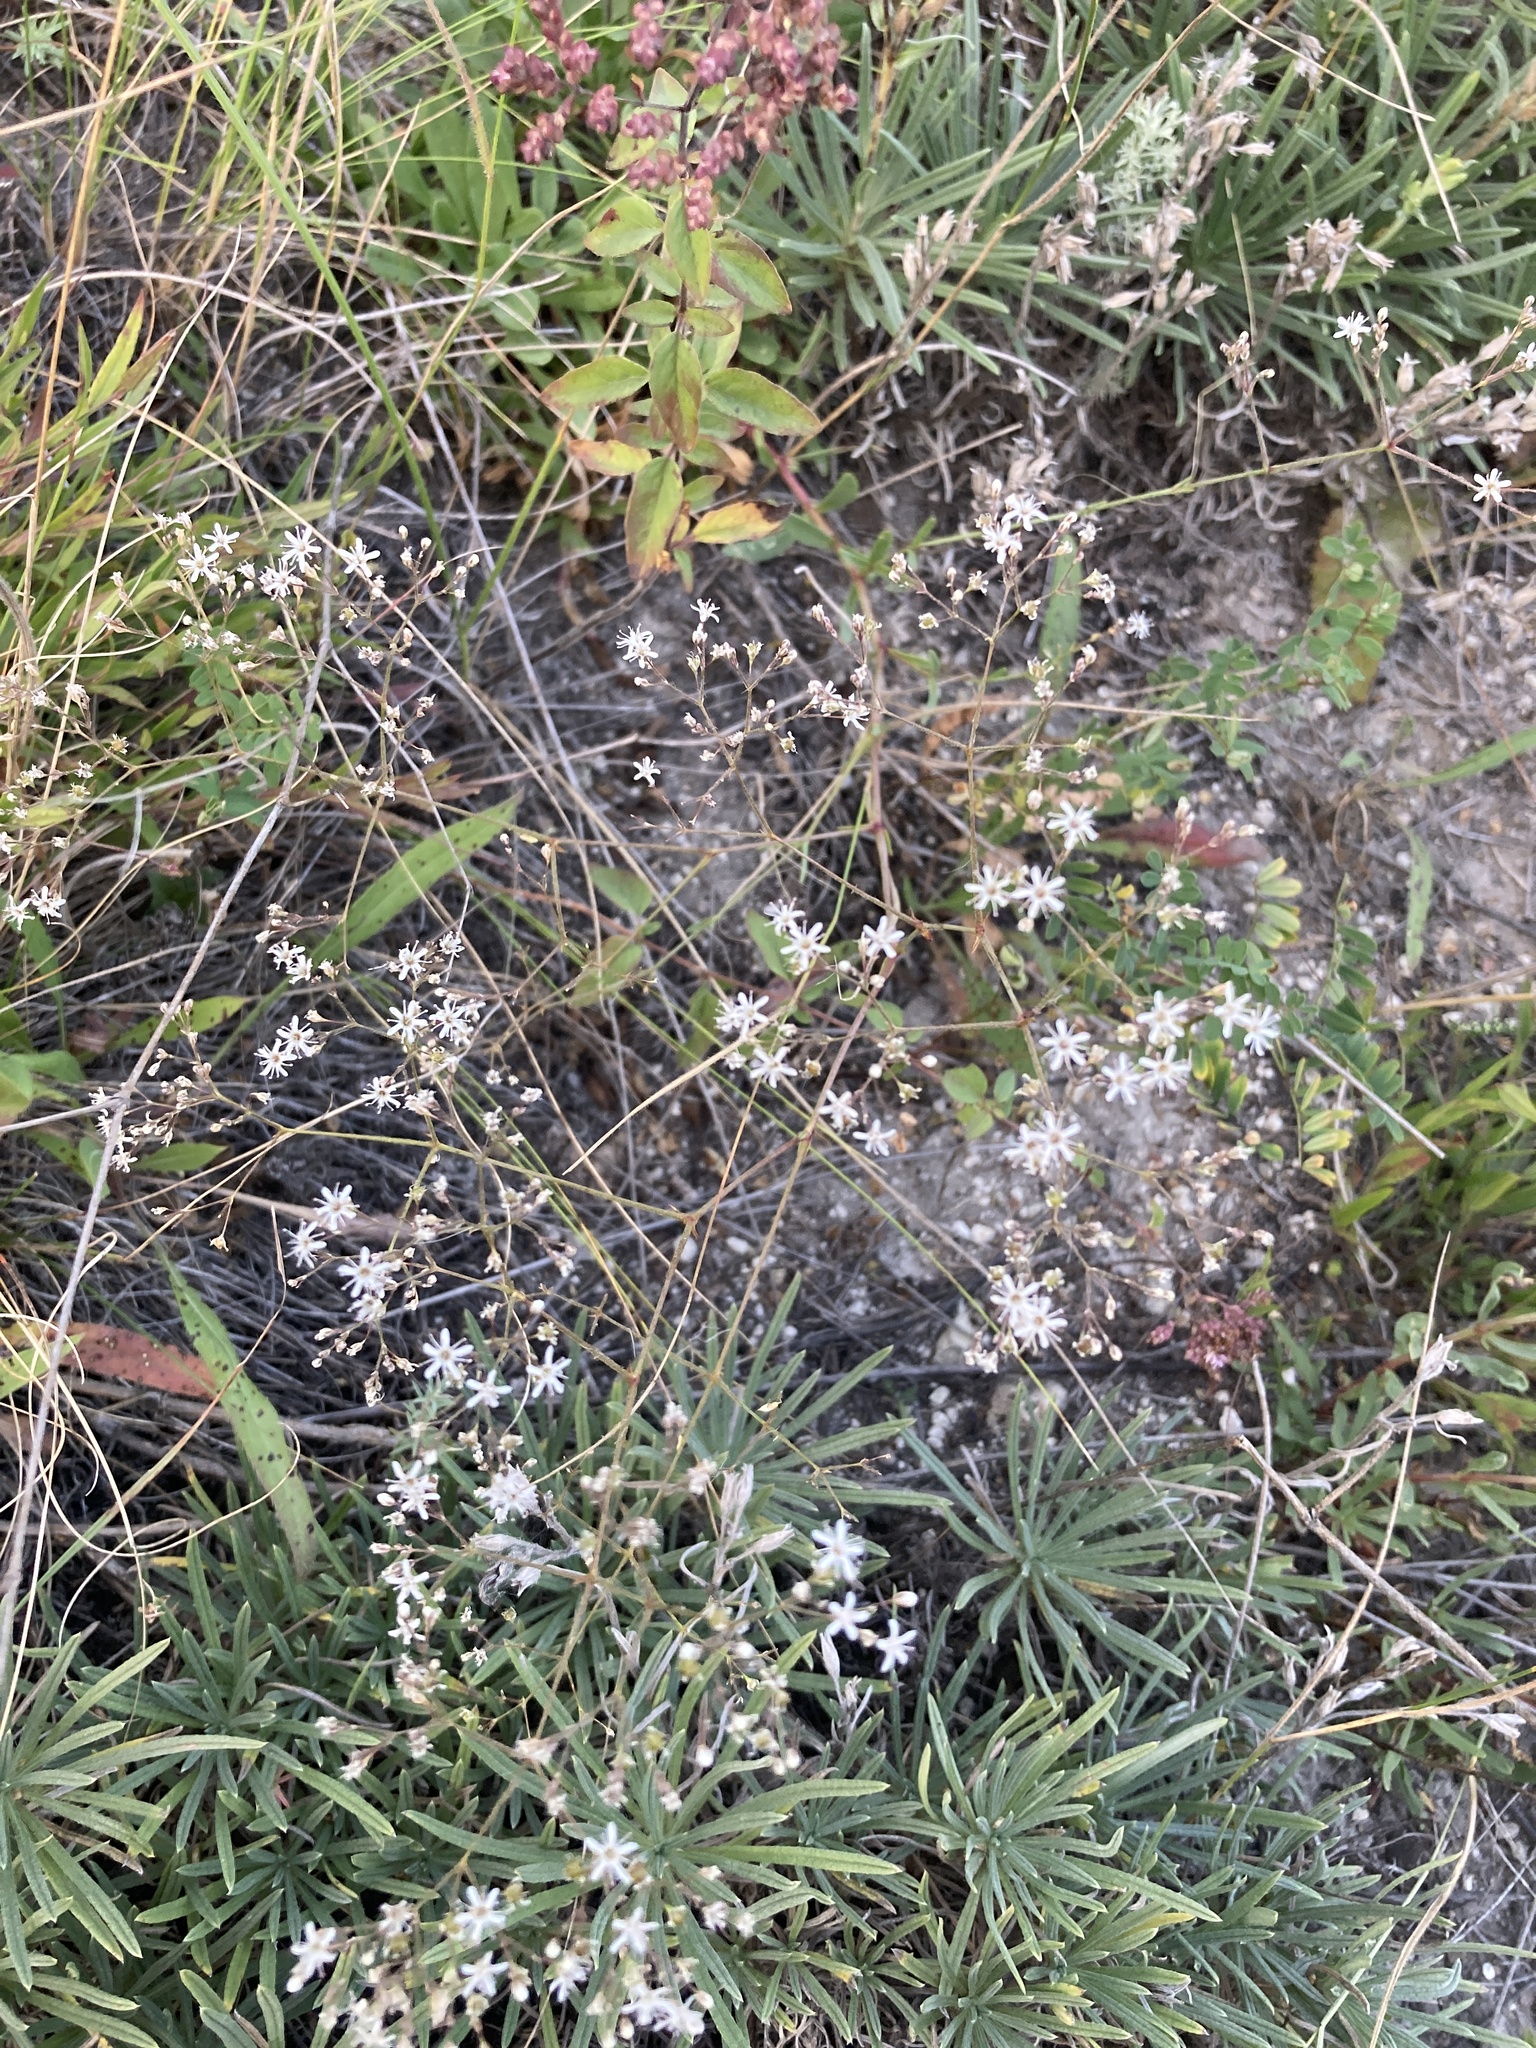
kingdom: Plantae
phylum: Tracheophyta
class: Magnoliopsida
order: Caryophyllales
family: Caryophyllaceae
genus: Gypsophila
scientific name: Gypsophila altissima
